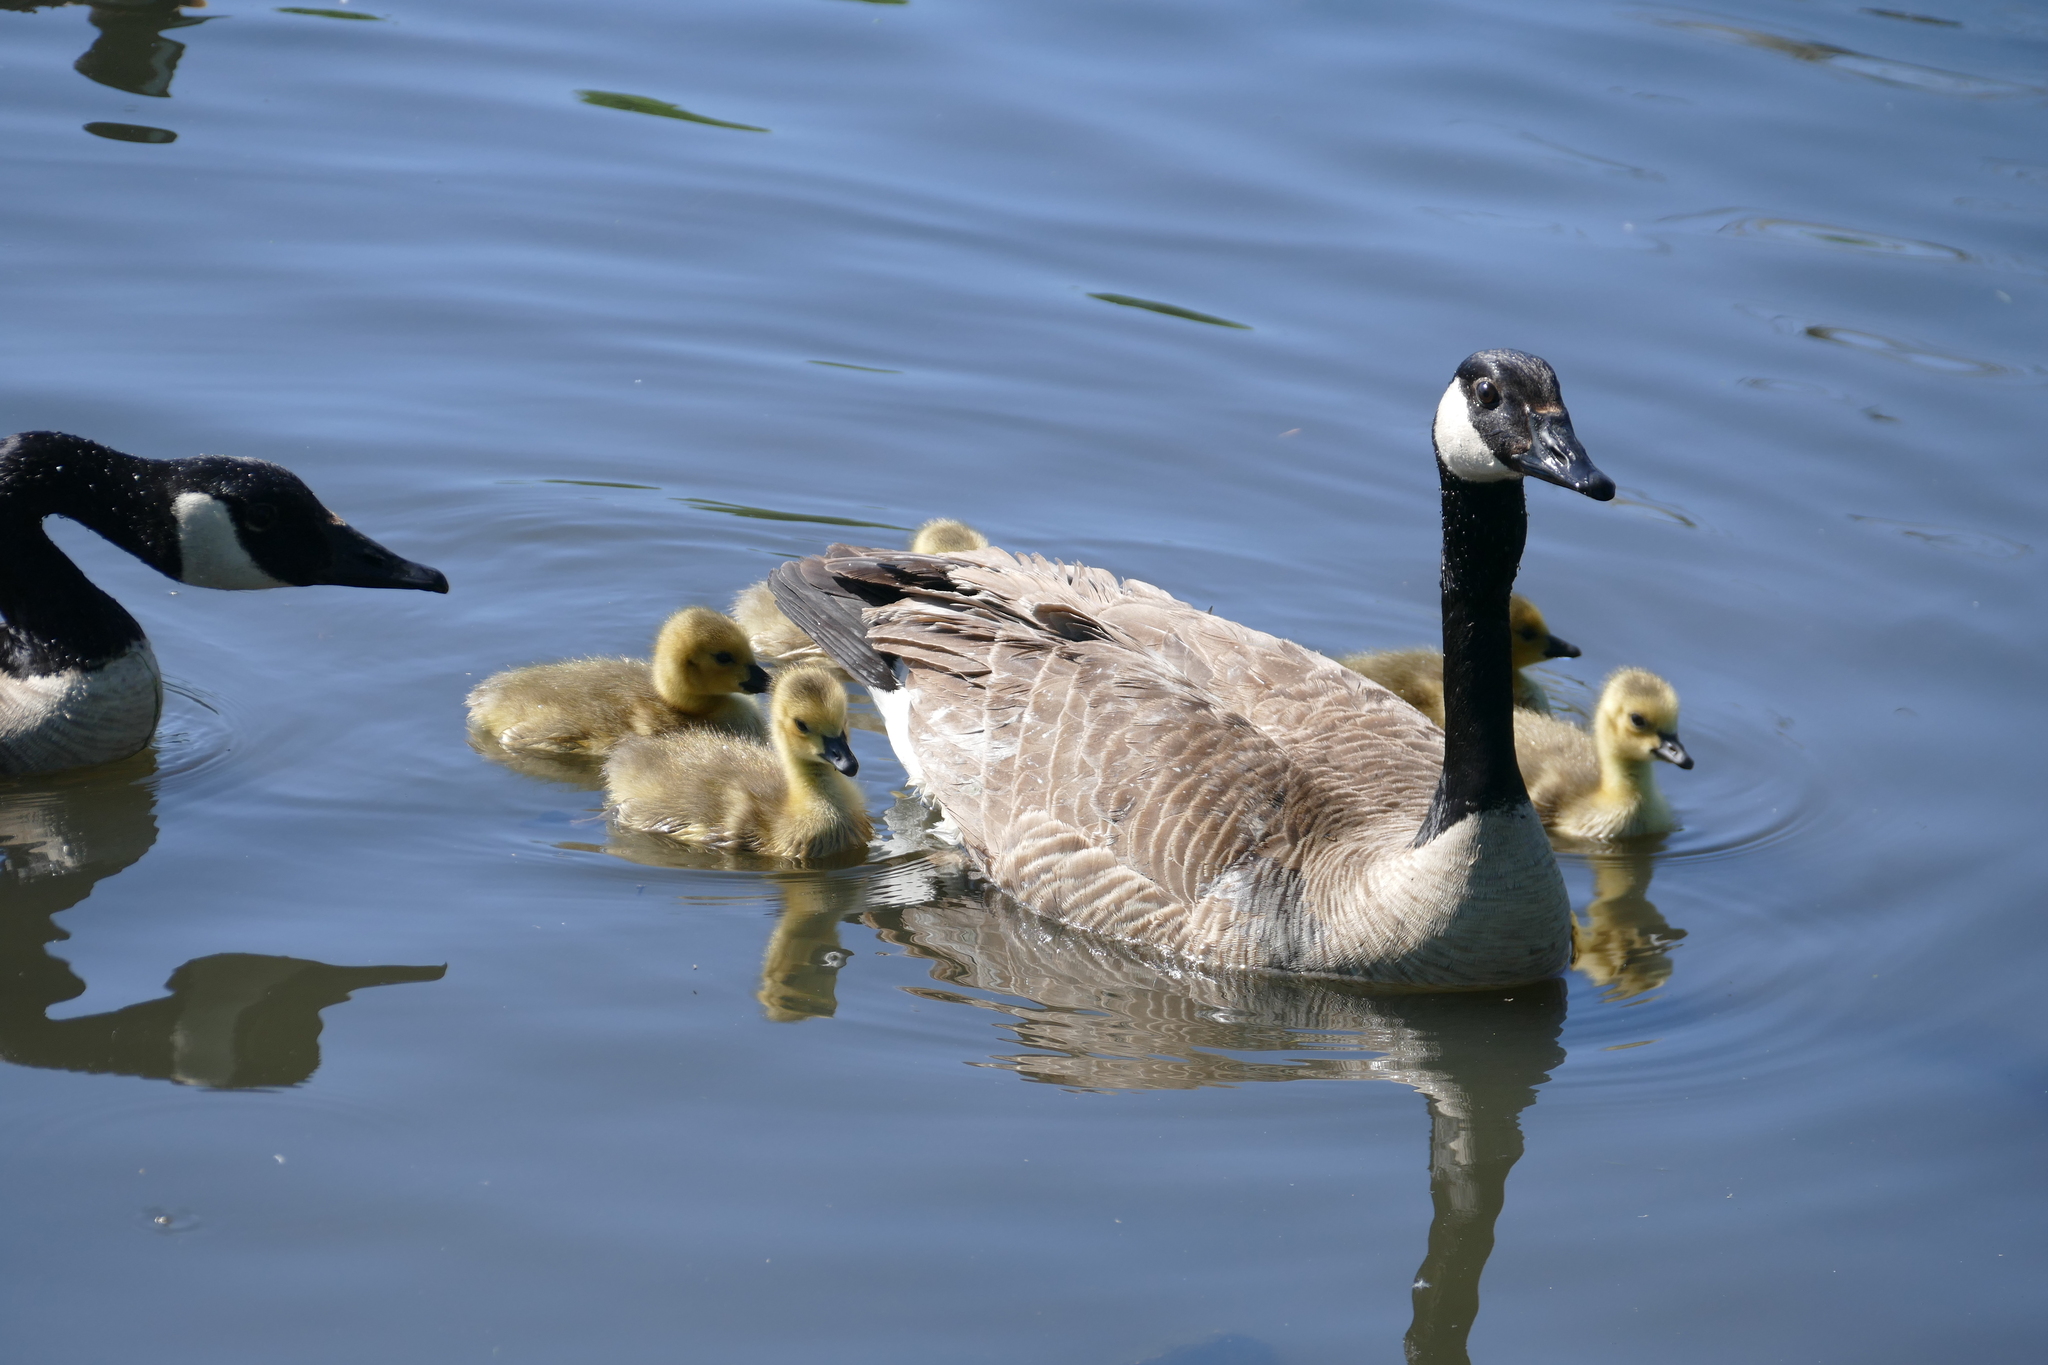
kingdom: Animalia
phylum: Chordata
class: Aves
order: Anseriformes
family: Anatidae
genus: Branta
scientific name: Branta canadensis
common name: Canada goose
